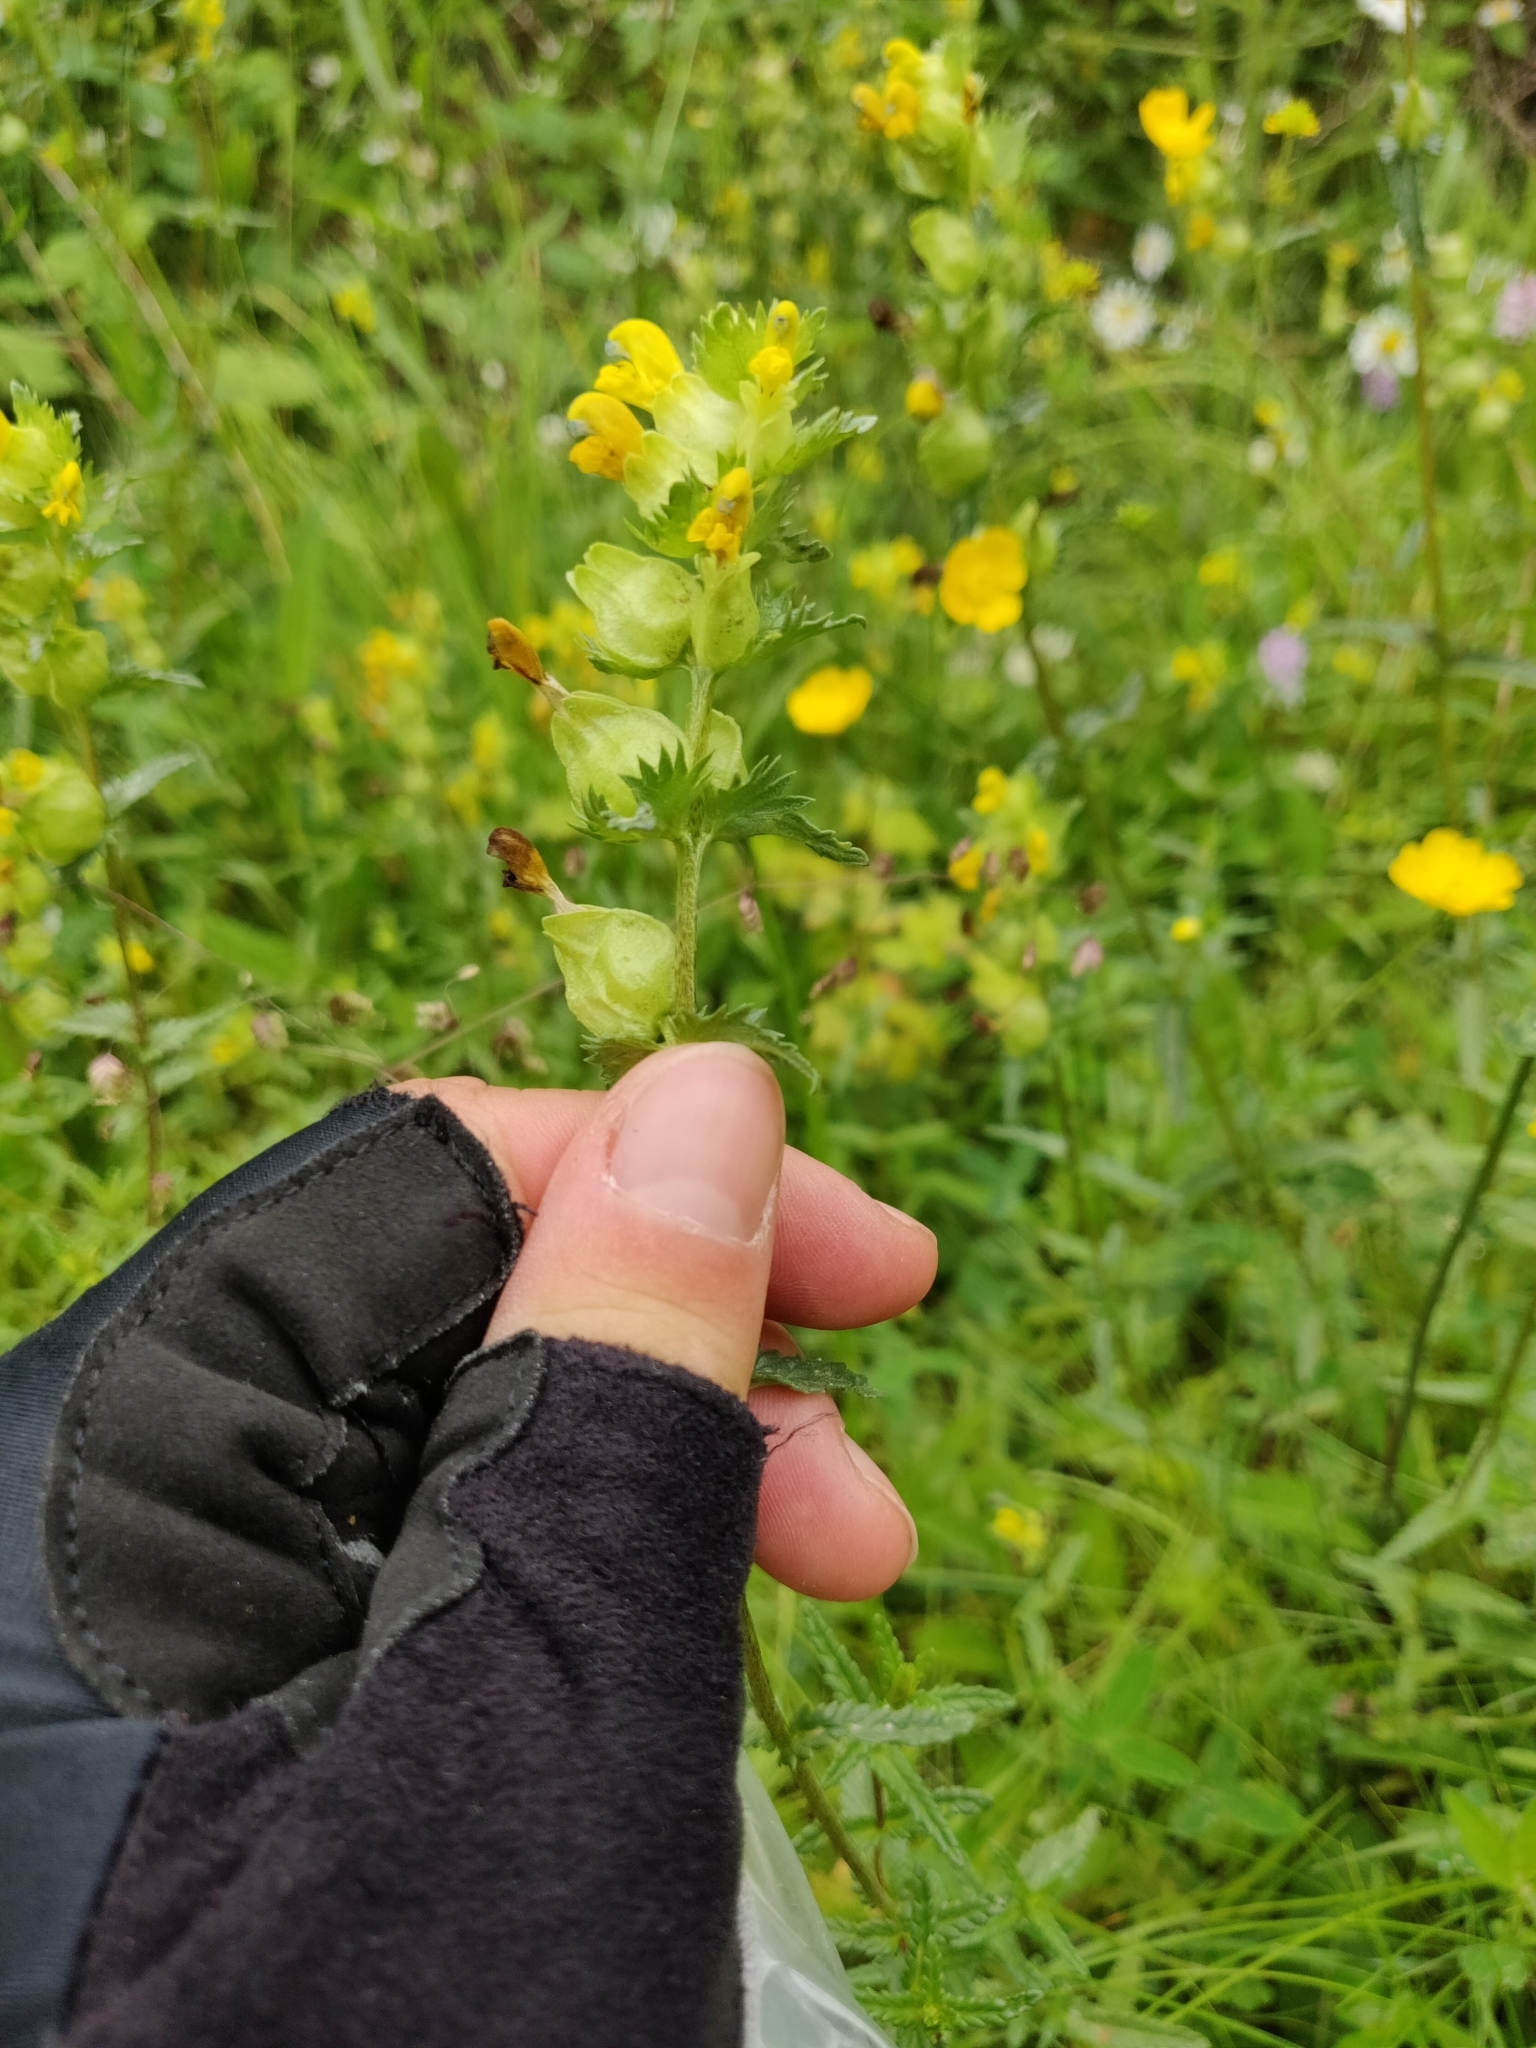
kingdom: Plantae
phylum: Tracheophyta
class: Magnoliopsida
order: Lamiales
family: Orobanchaceae
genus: Rhinanthus
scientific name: Rhinanthus minor
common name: Yellow-rattle
